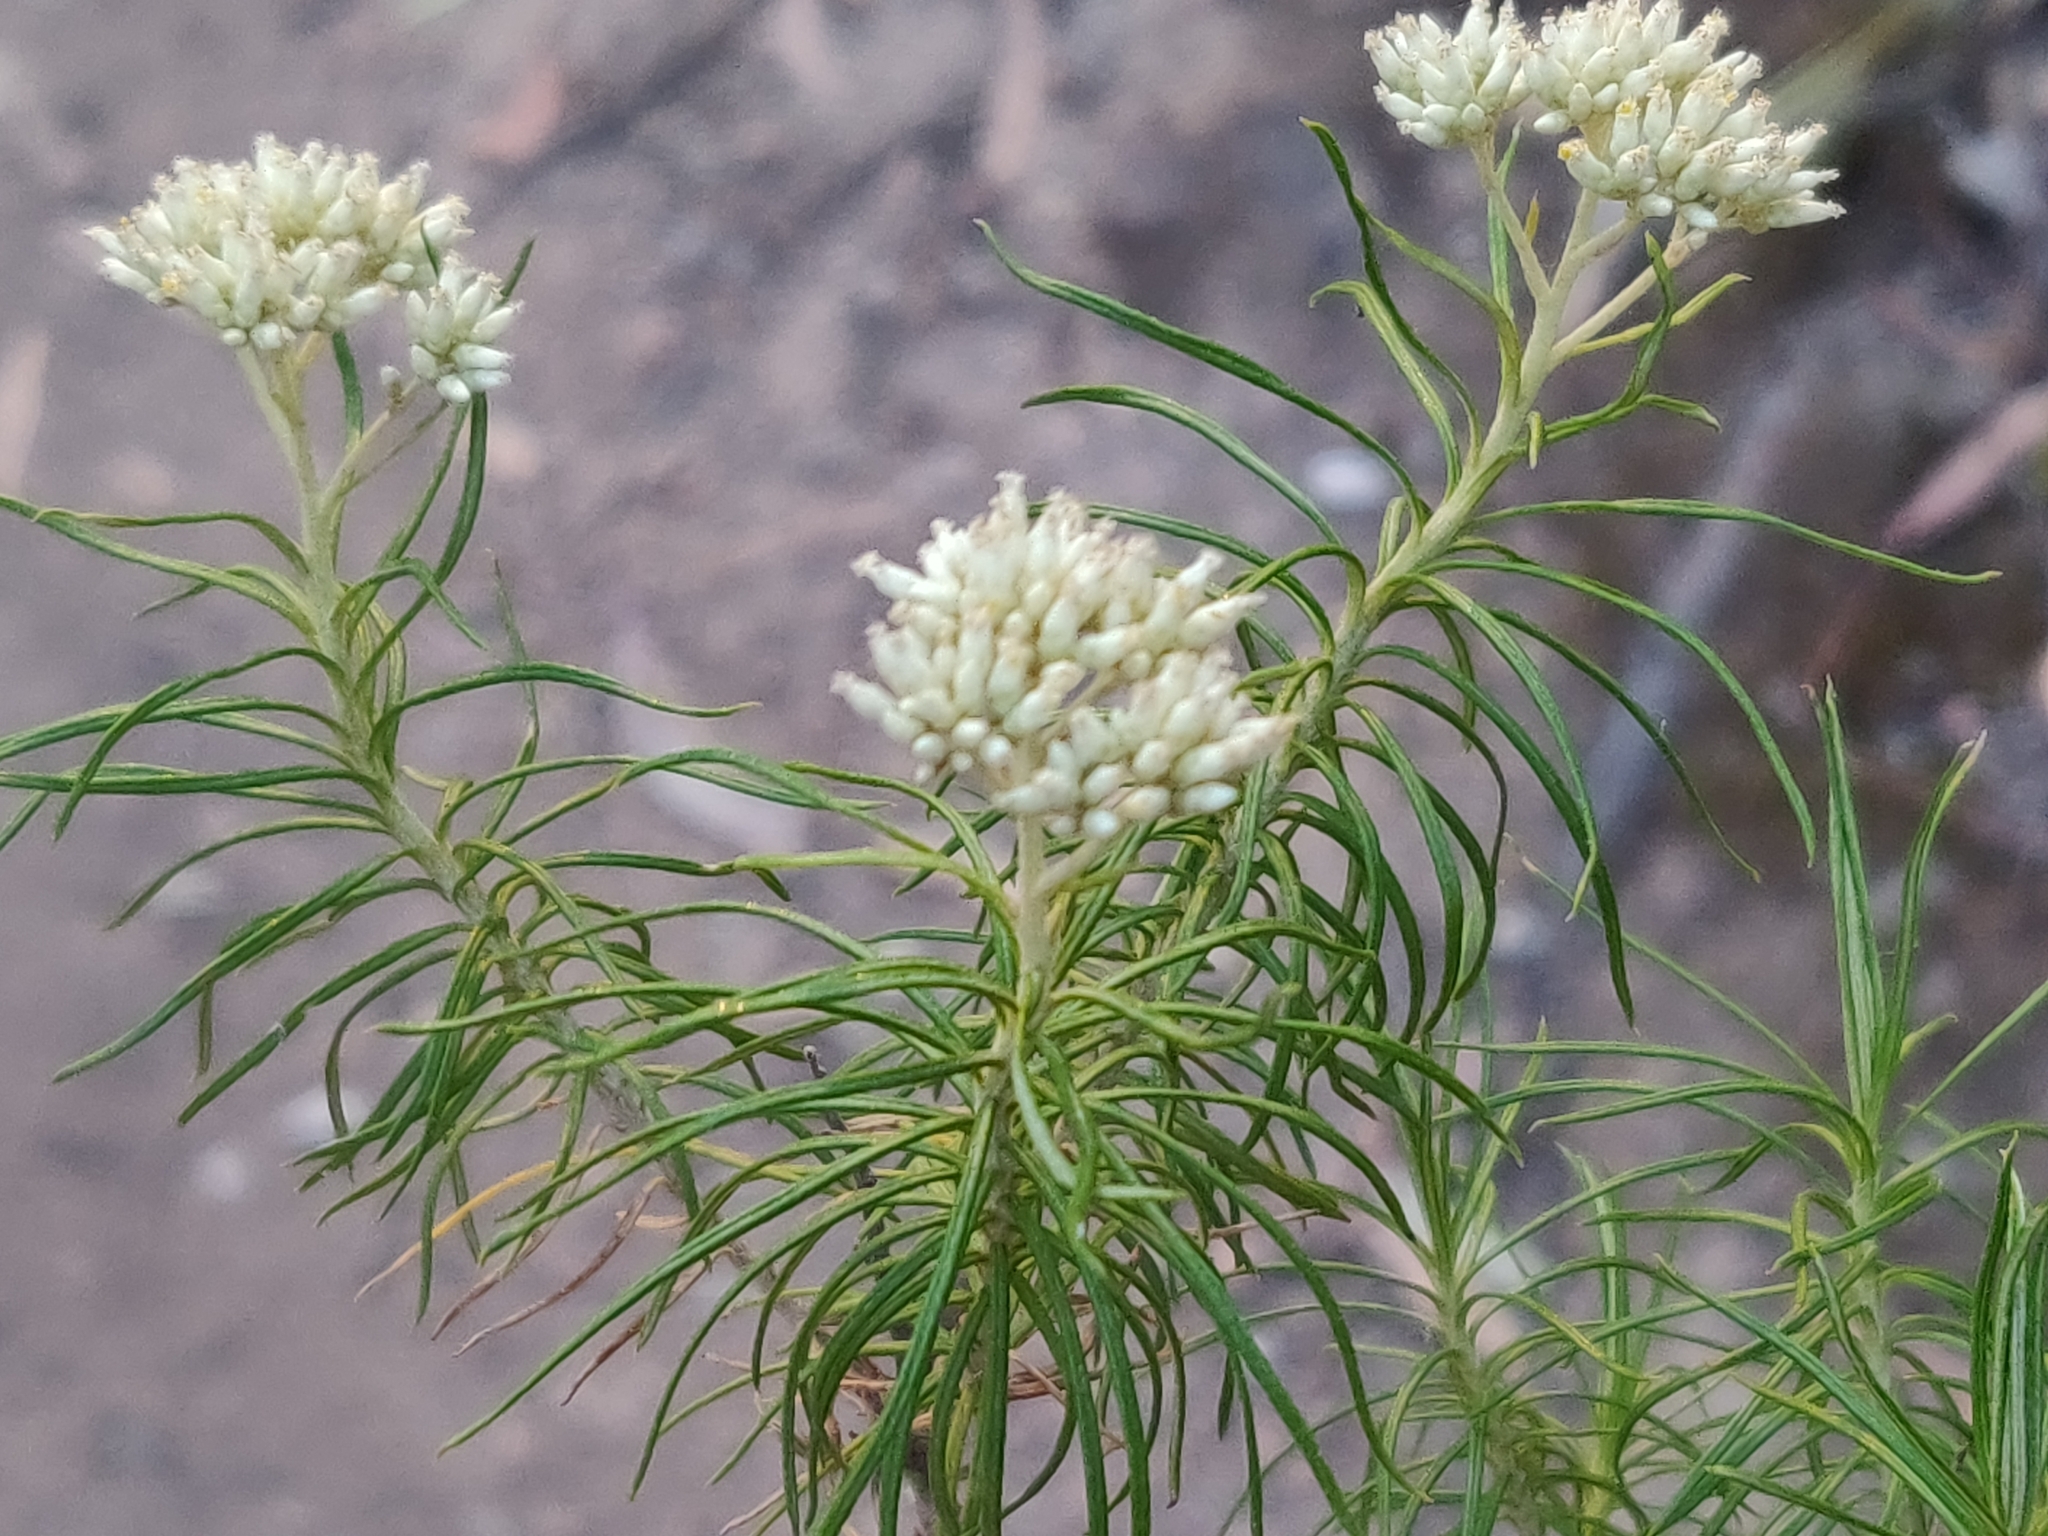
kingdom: Plantae
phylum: Tracheophyta
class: Magnoliopsida
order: Asterales
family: Asteraceae
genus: Cassinia
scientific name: Cassinia longifolia
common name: Longleaf-dogwood
